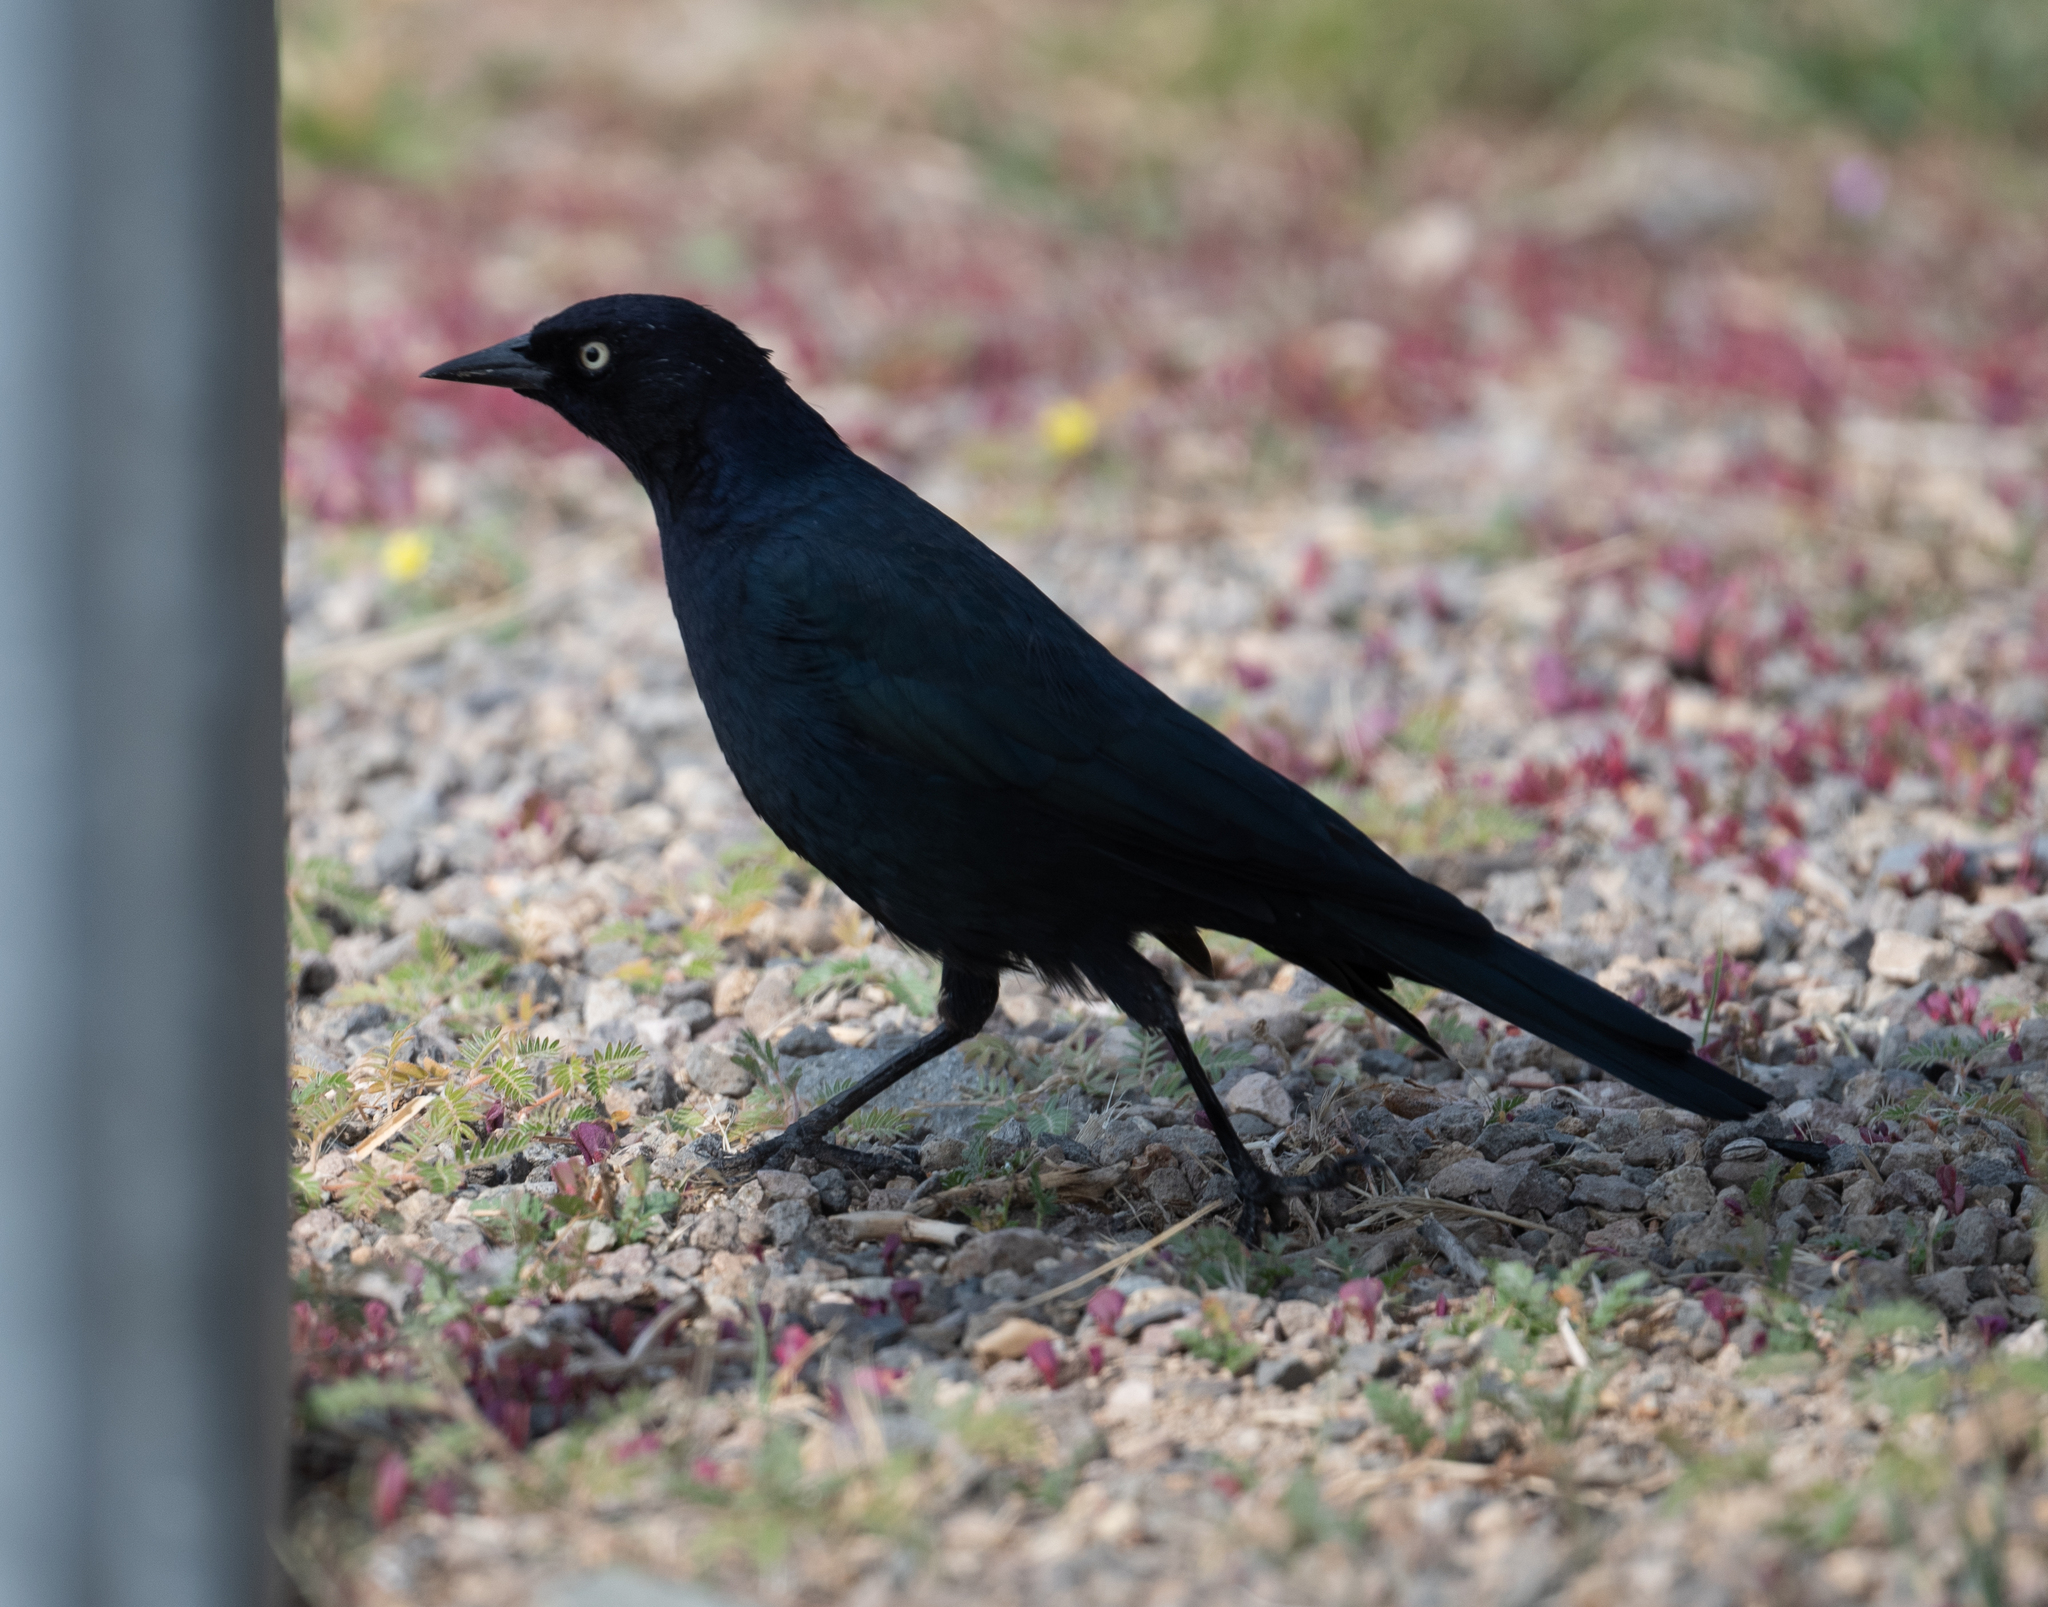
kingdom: Animalia
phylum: Chordata
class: Aves
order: Passeriformes
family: Icteridae
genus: Euphagus
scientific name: Euphagus cyanocephalus
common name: Brewer's blackbird
